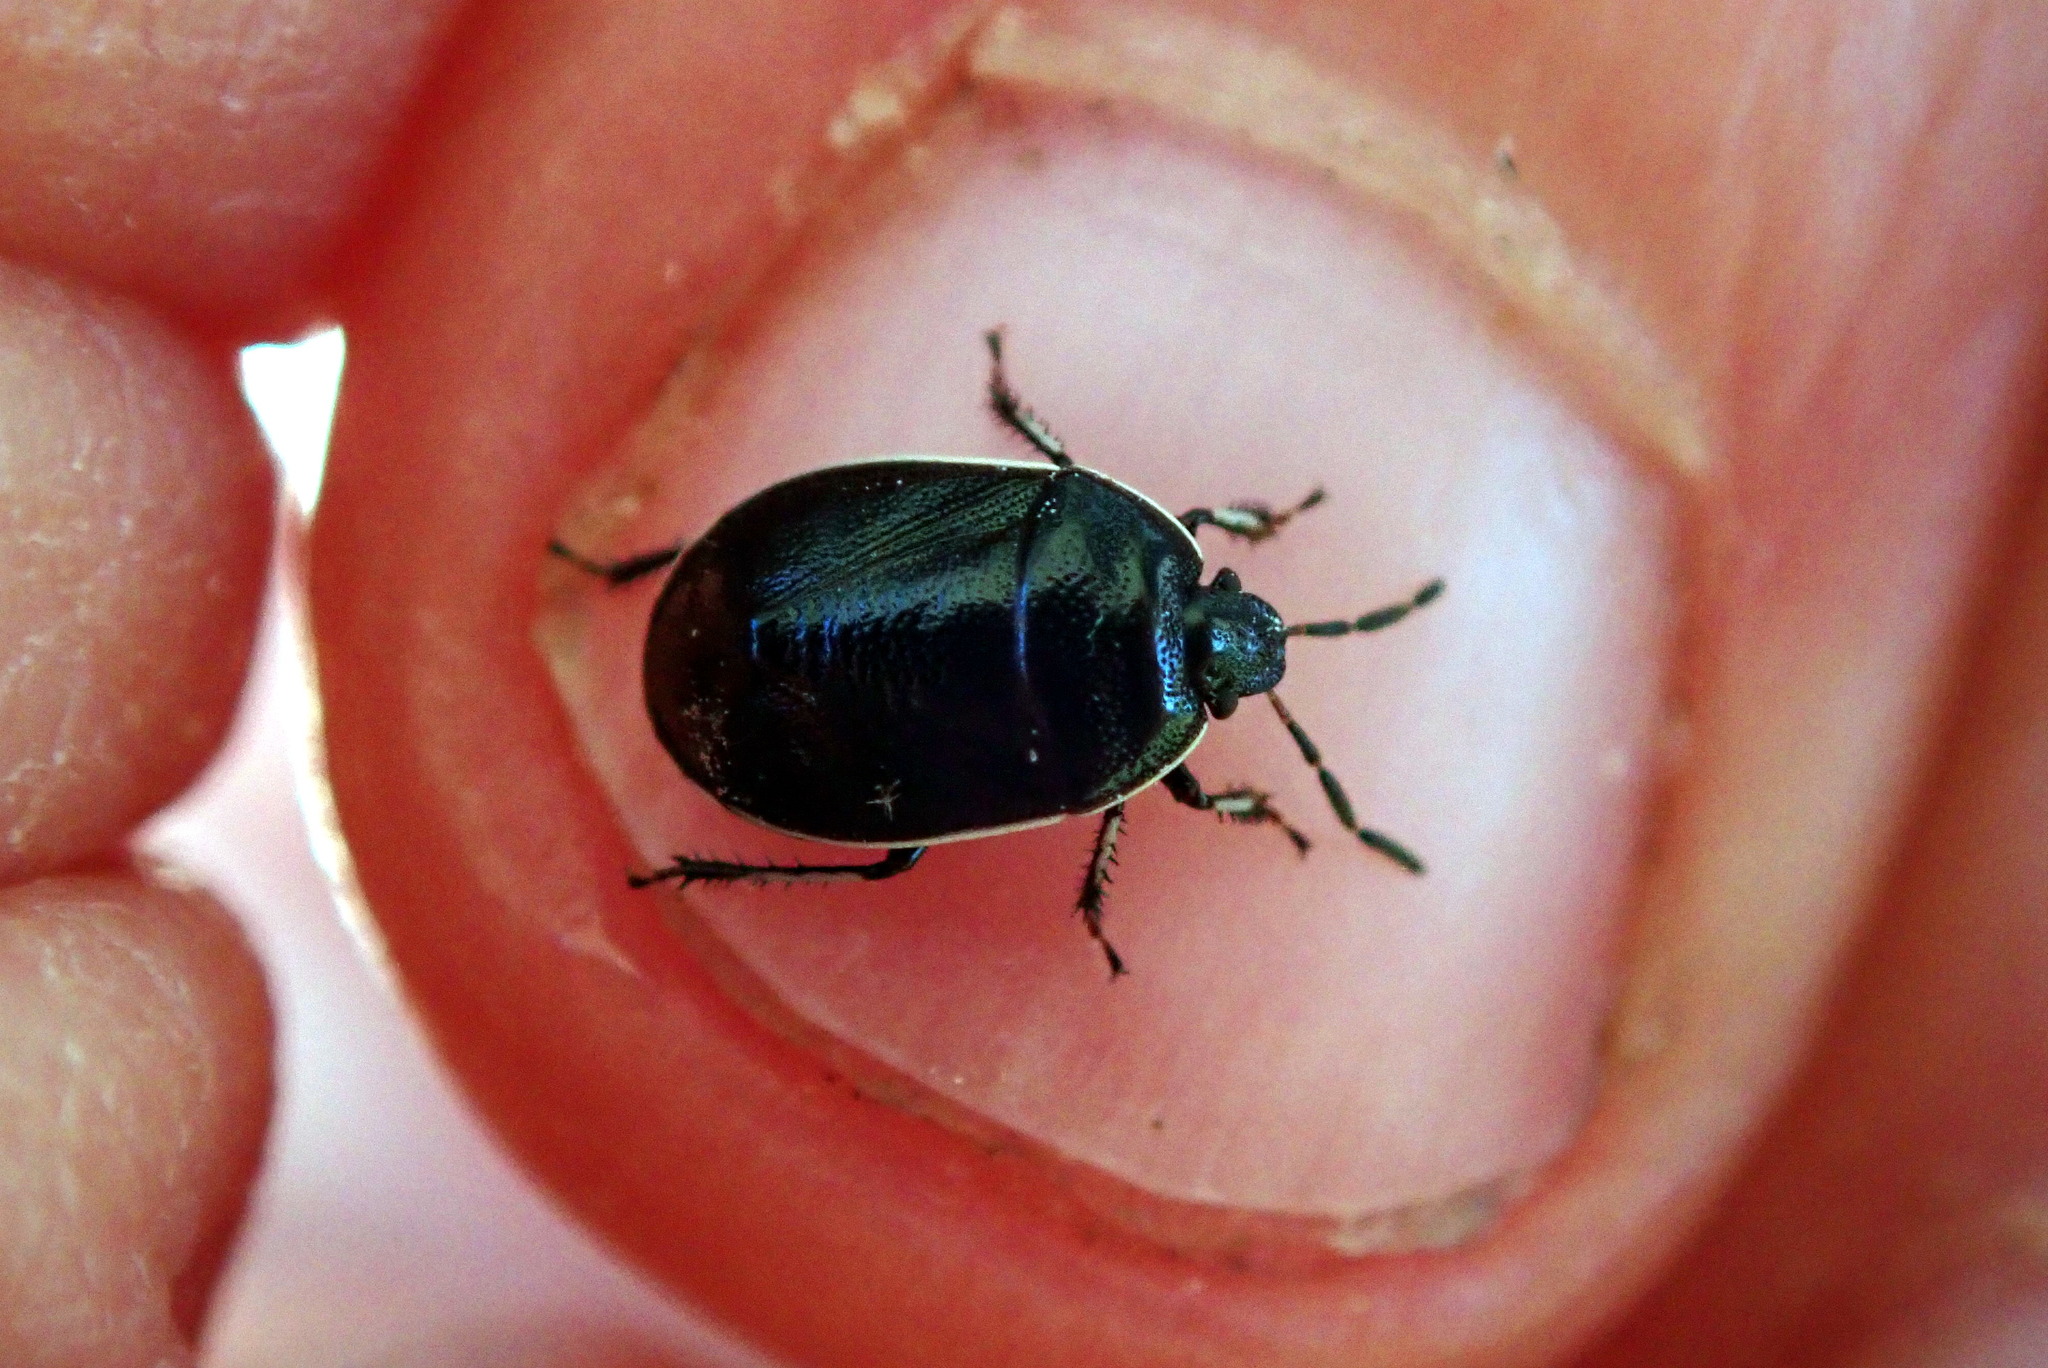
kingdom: Animalia
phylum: Arthropoda
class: Insecta
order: Hemiptera
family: Cydnidae
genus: Sehirus
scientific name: Sehirus cinctus
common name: White-margined burrower bug
